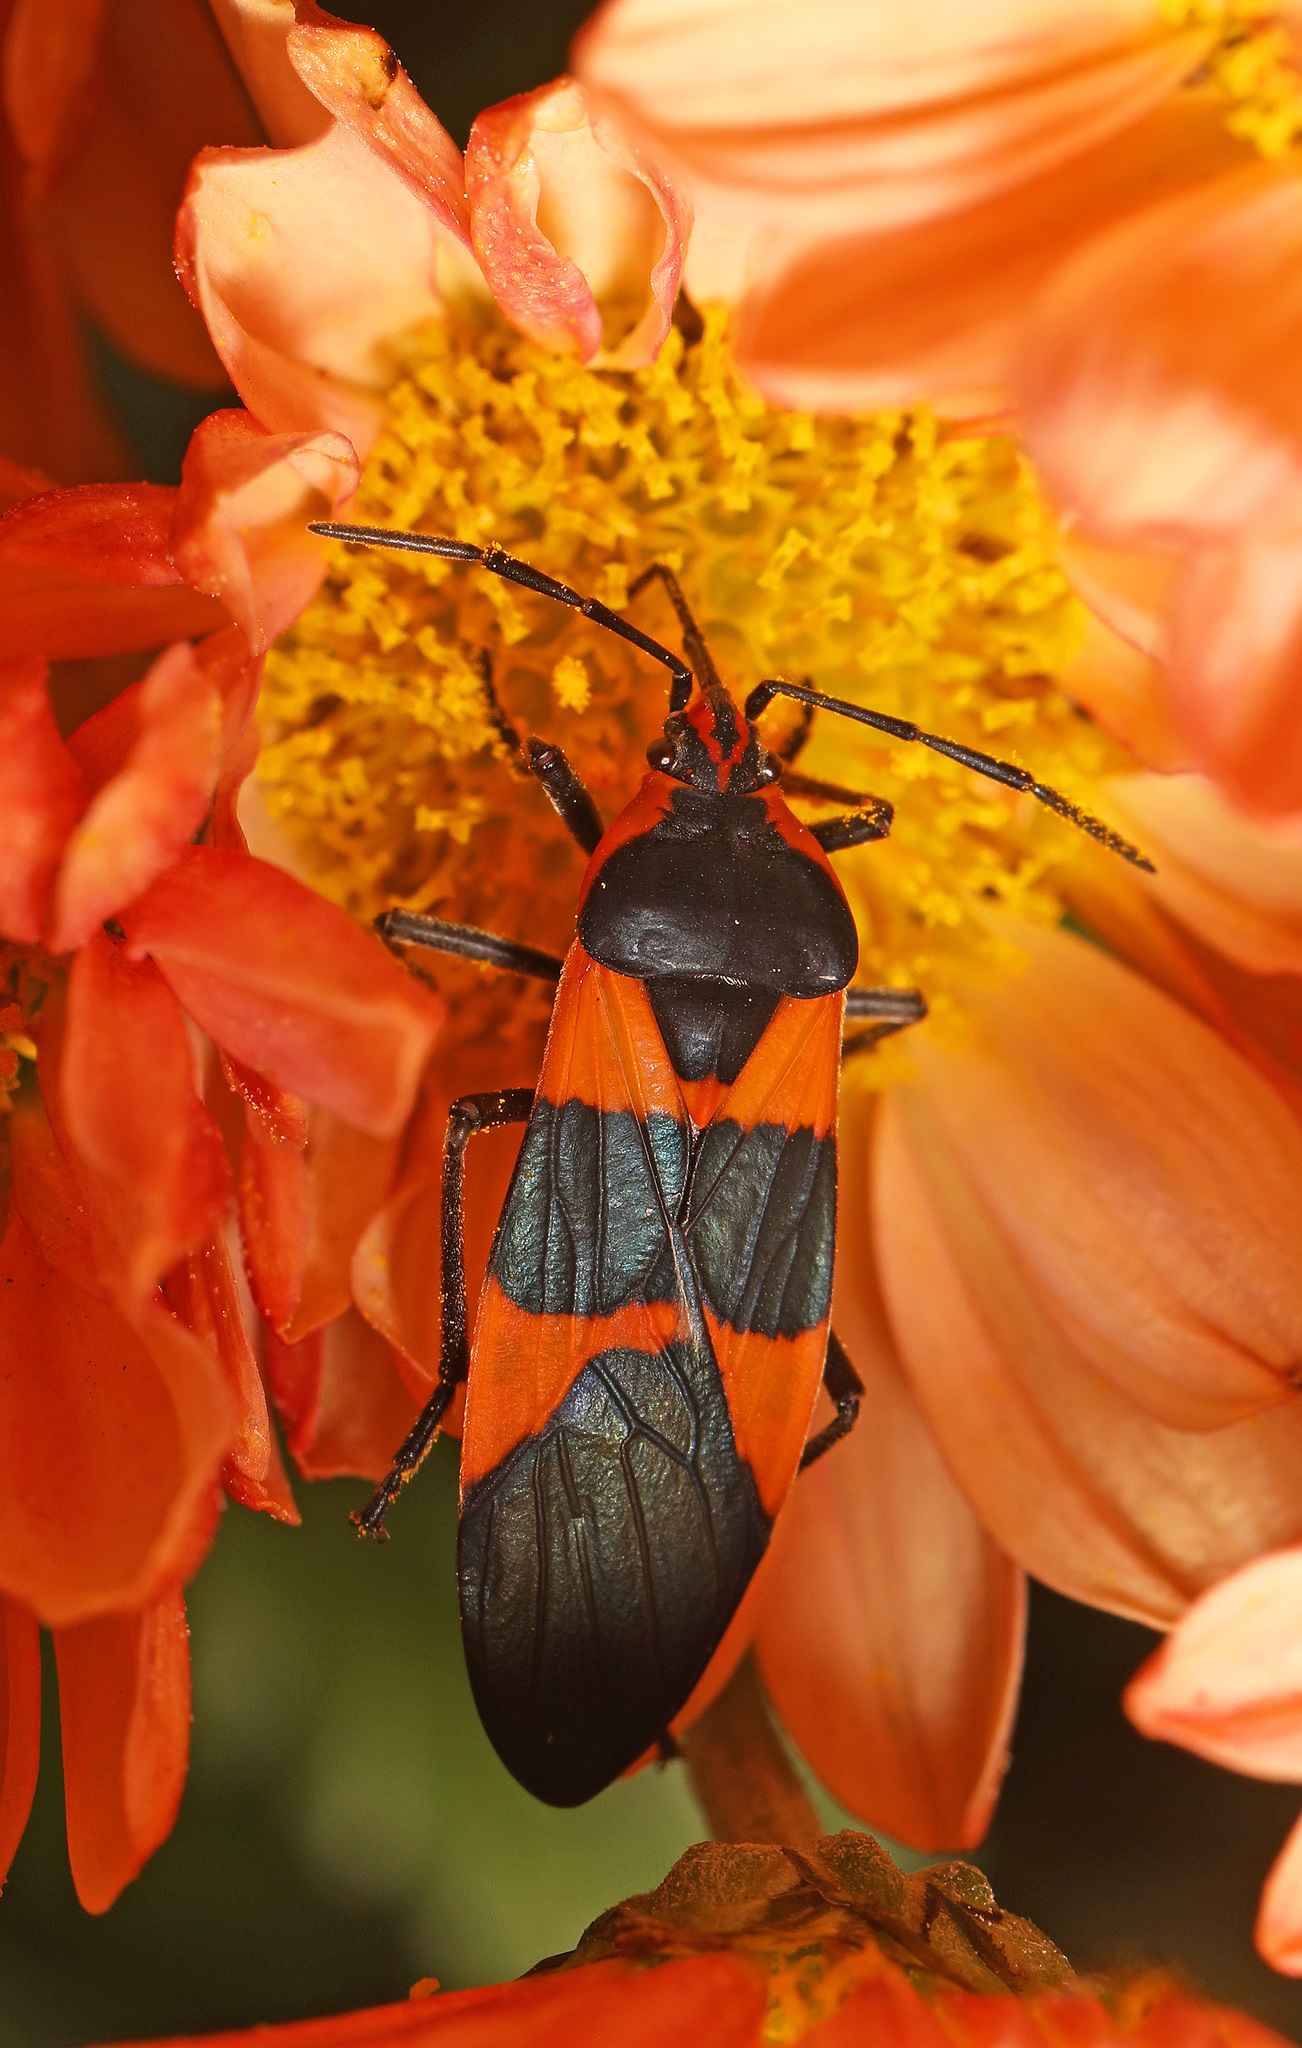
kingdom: Animalia
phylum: Arthropoda
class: Insecta
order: Hemiptera
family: Lygaeidae
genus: Oncopeltus
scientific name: Oncopeltus fasciatus
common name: Large milkweed bug
